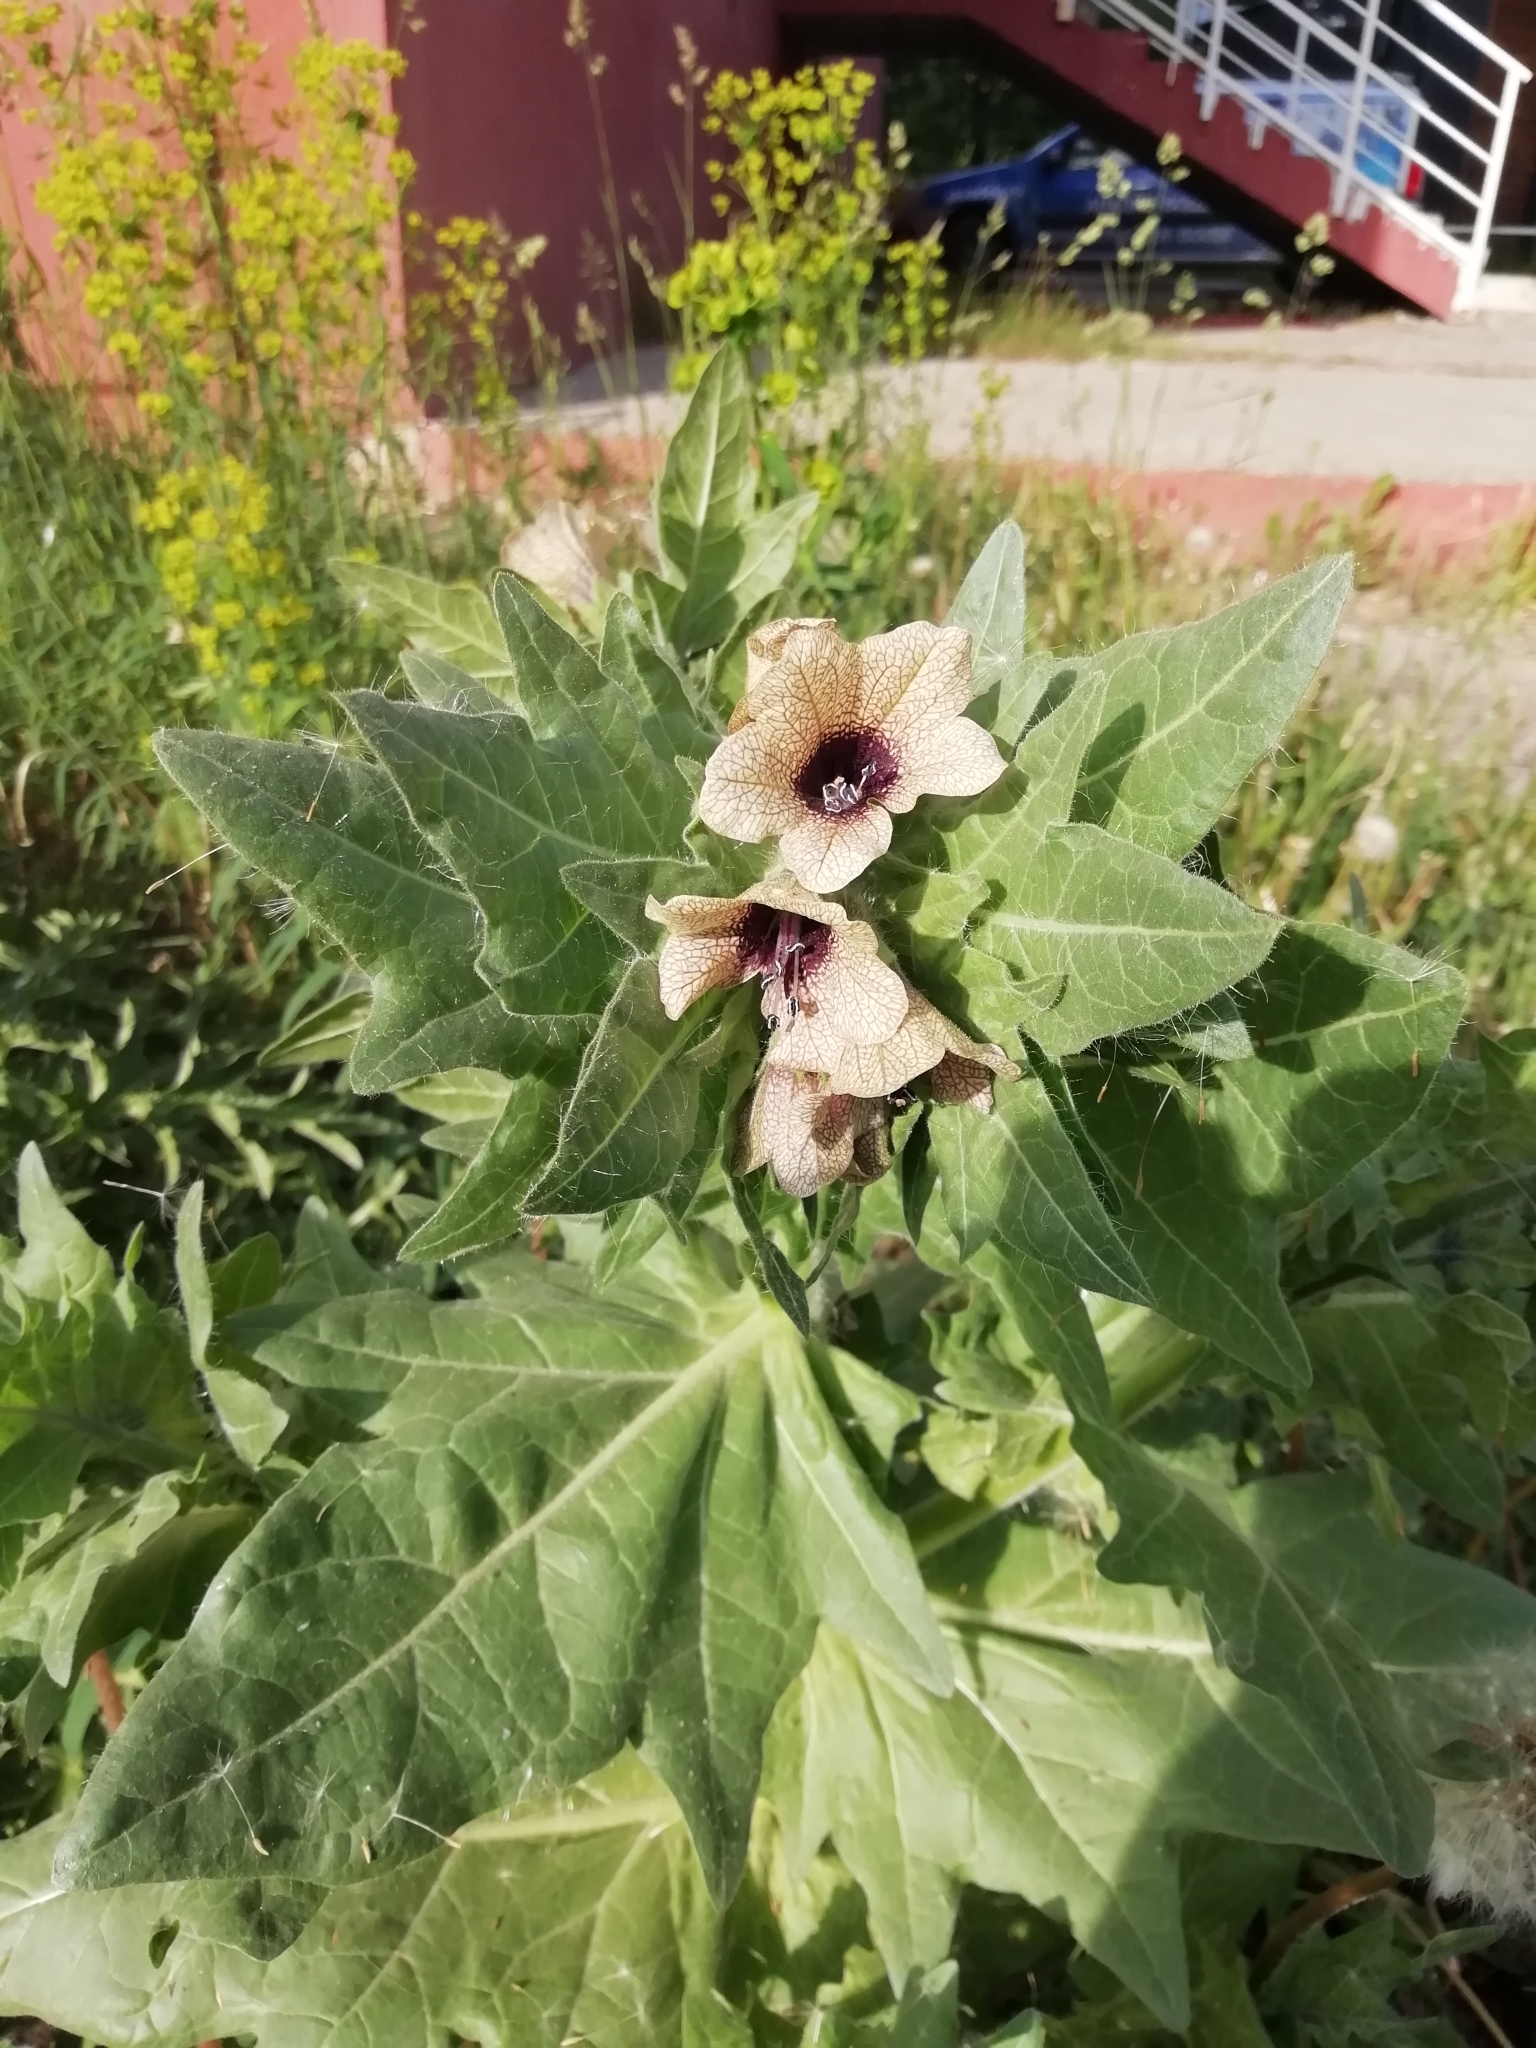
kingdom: Plantae
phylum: Tracheophyta
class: Magnoliopsida
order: Solanales
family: Solanaceae
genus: Hyoscyamus
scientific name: Hyoscyamus niger
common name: Henbane
